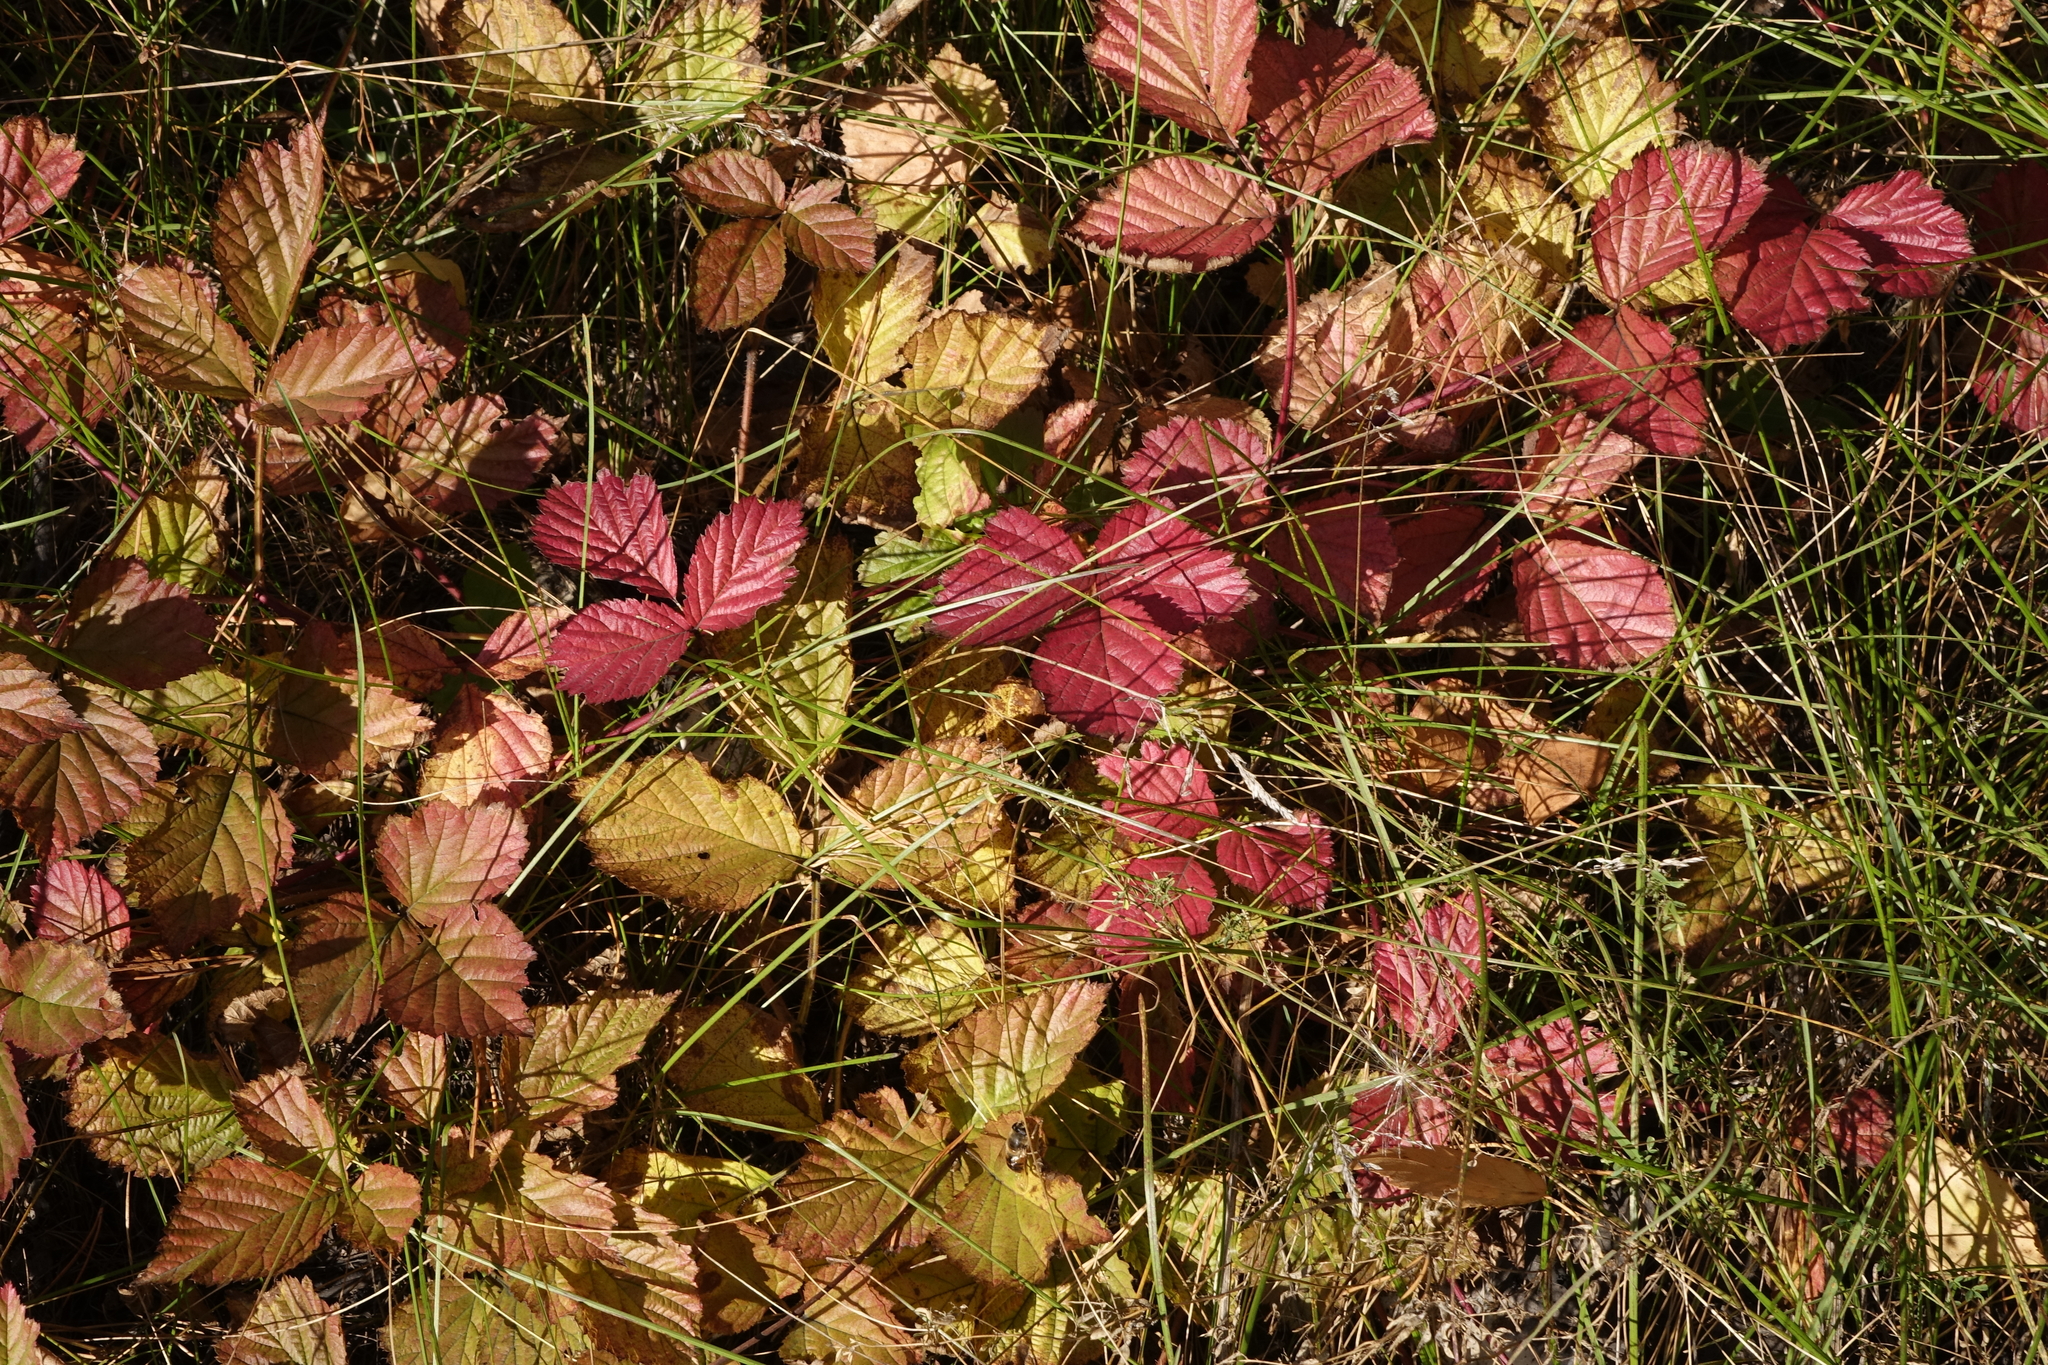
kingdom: Plantae
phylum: Tracheophyta
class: Magnoliopsida
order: Rosales
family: Rosaceae
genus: Rubus
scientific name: Rubus caesius
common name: Dewberry
